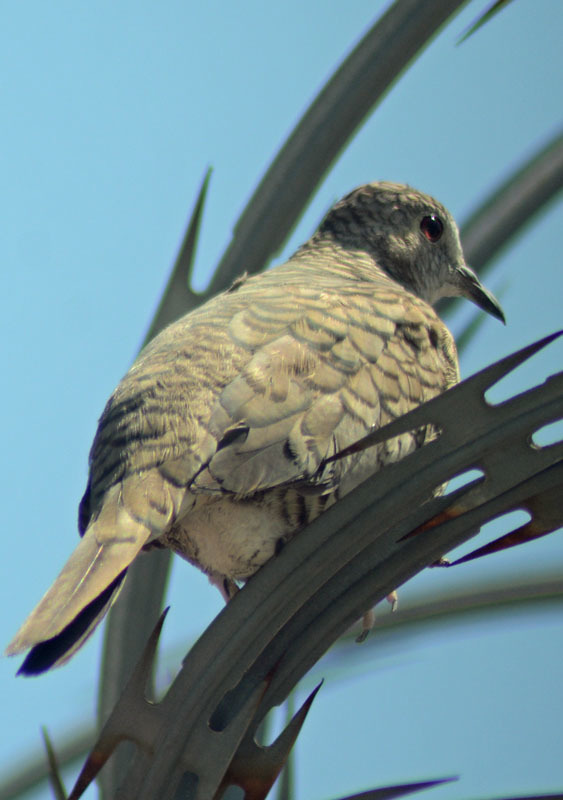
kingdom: Animalia
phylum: Chordata
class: Aves
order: Columbiformes
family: Columbidae
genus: Columbina
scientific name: Columbina inca
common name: Inca dove
